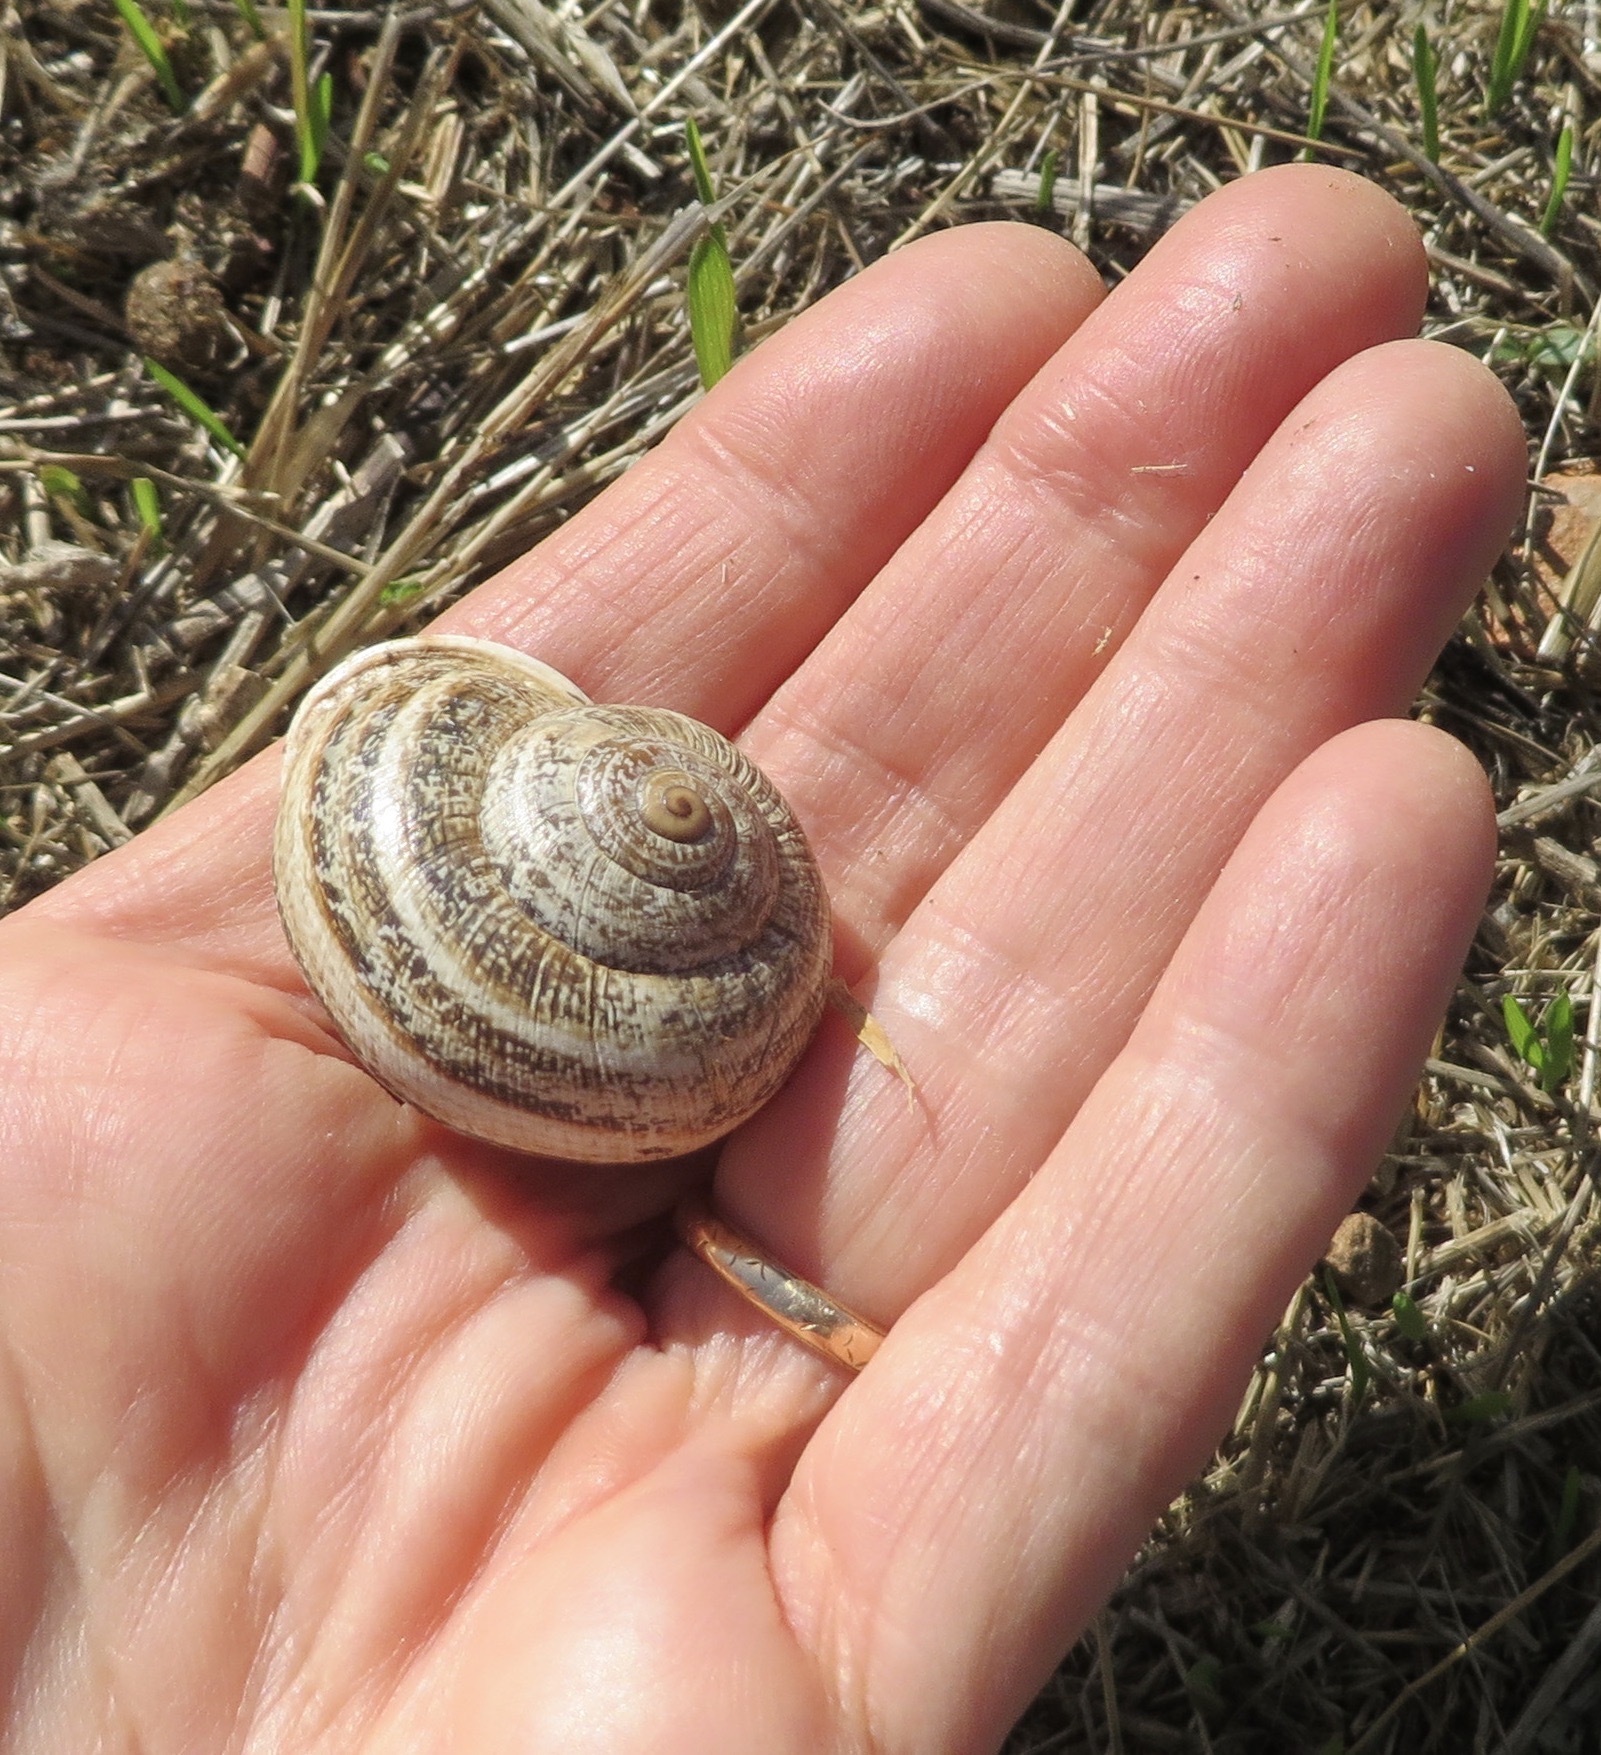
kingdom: Animalia
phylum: Mollusca
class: Gastropoda
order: Stylommatophora
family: Helicidae
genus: Otala
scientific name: Otala lactea
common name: Milk snail
